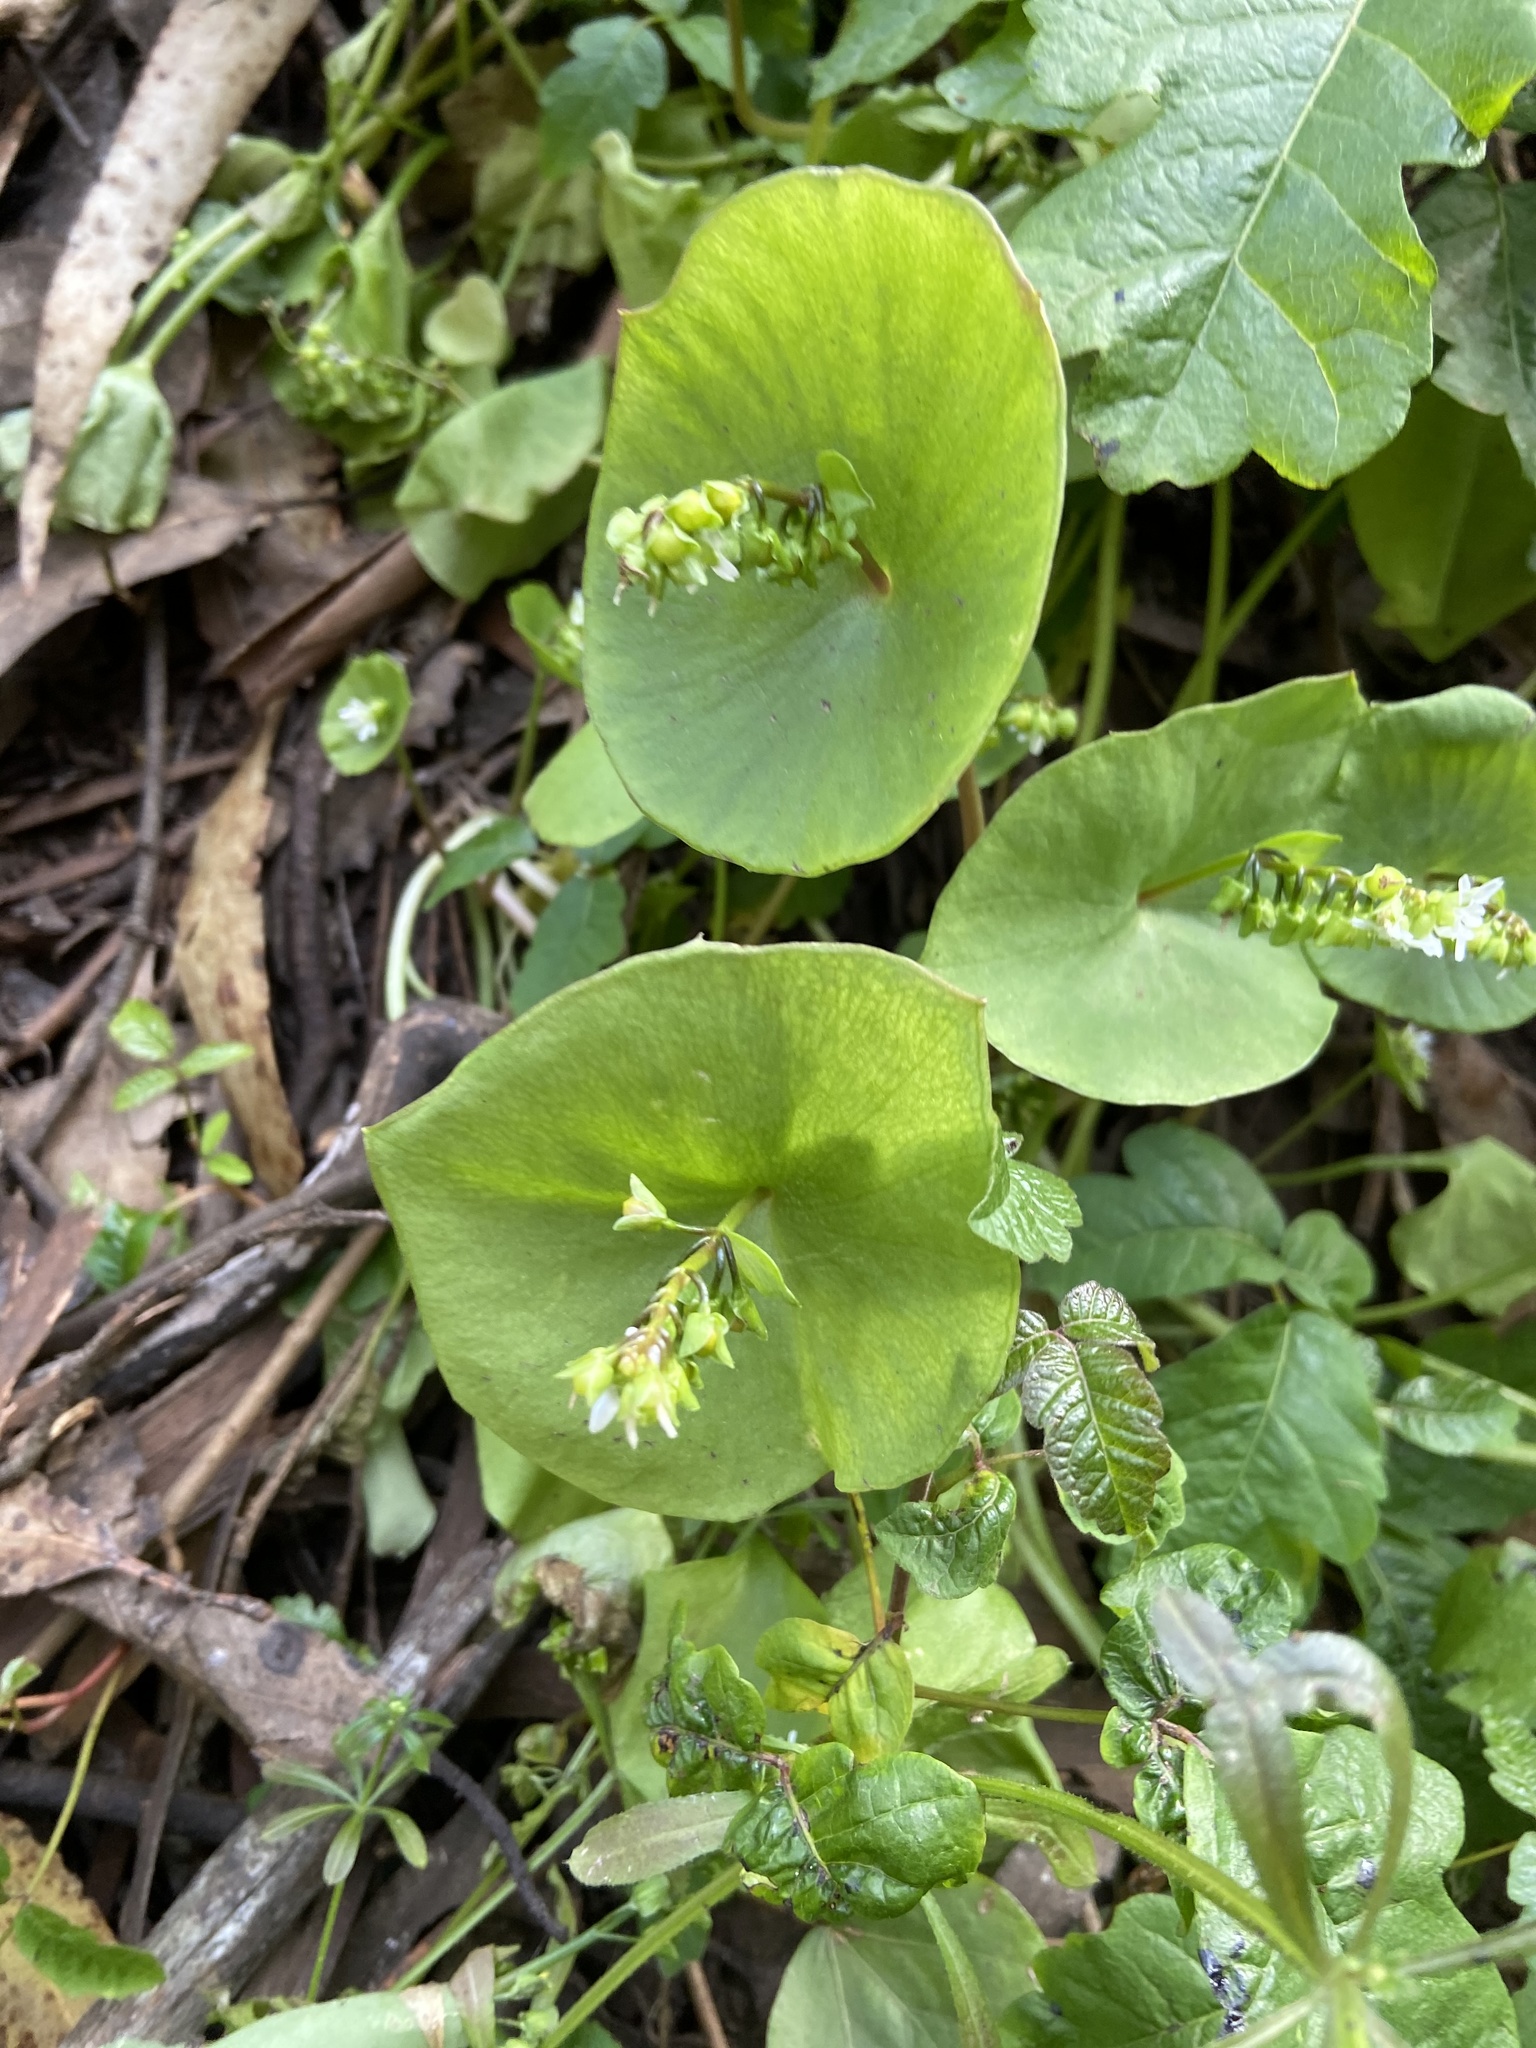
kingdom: Plantae
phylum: Tracheophyta
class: Magnoliopsida
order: Caryophyllales
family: Montiaceae
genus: Claytonia
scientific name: Claytonia perfoliata
